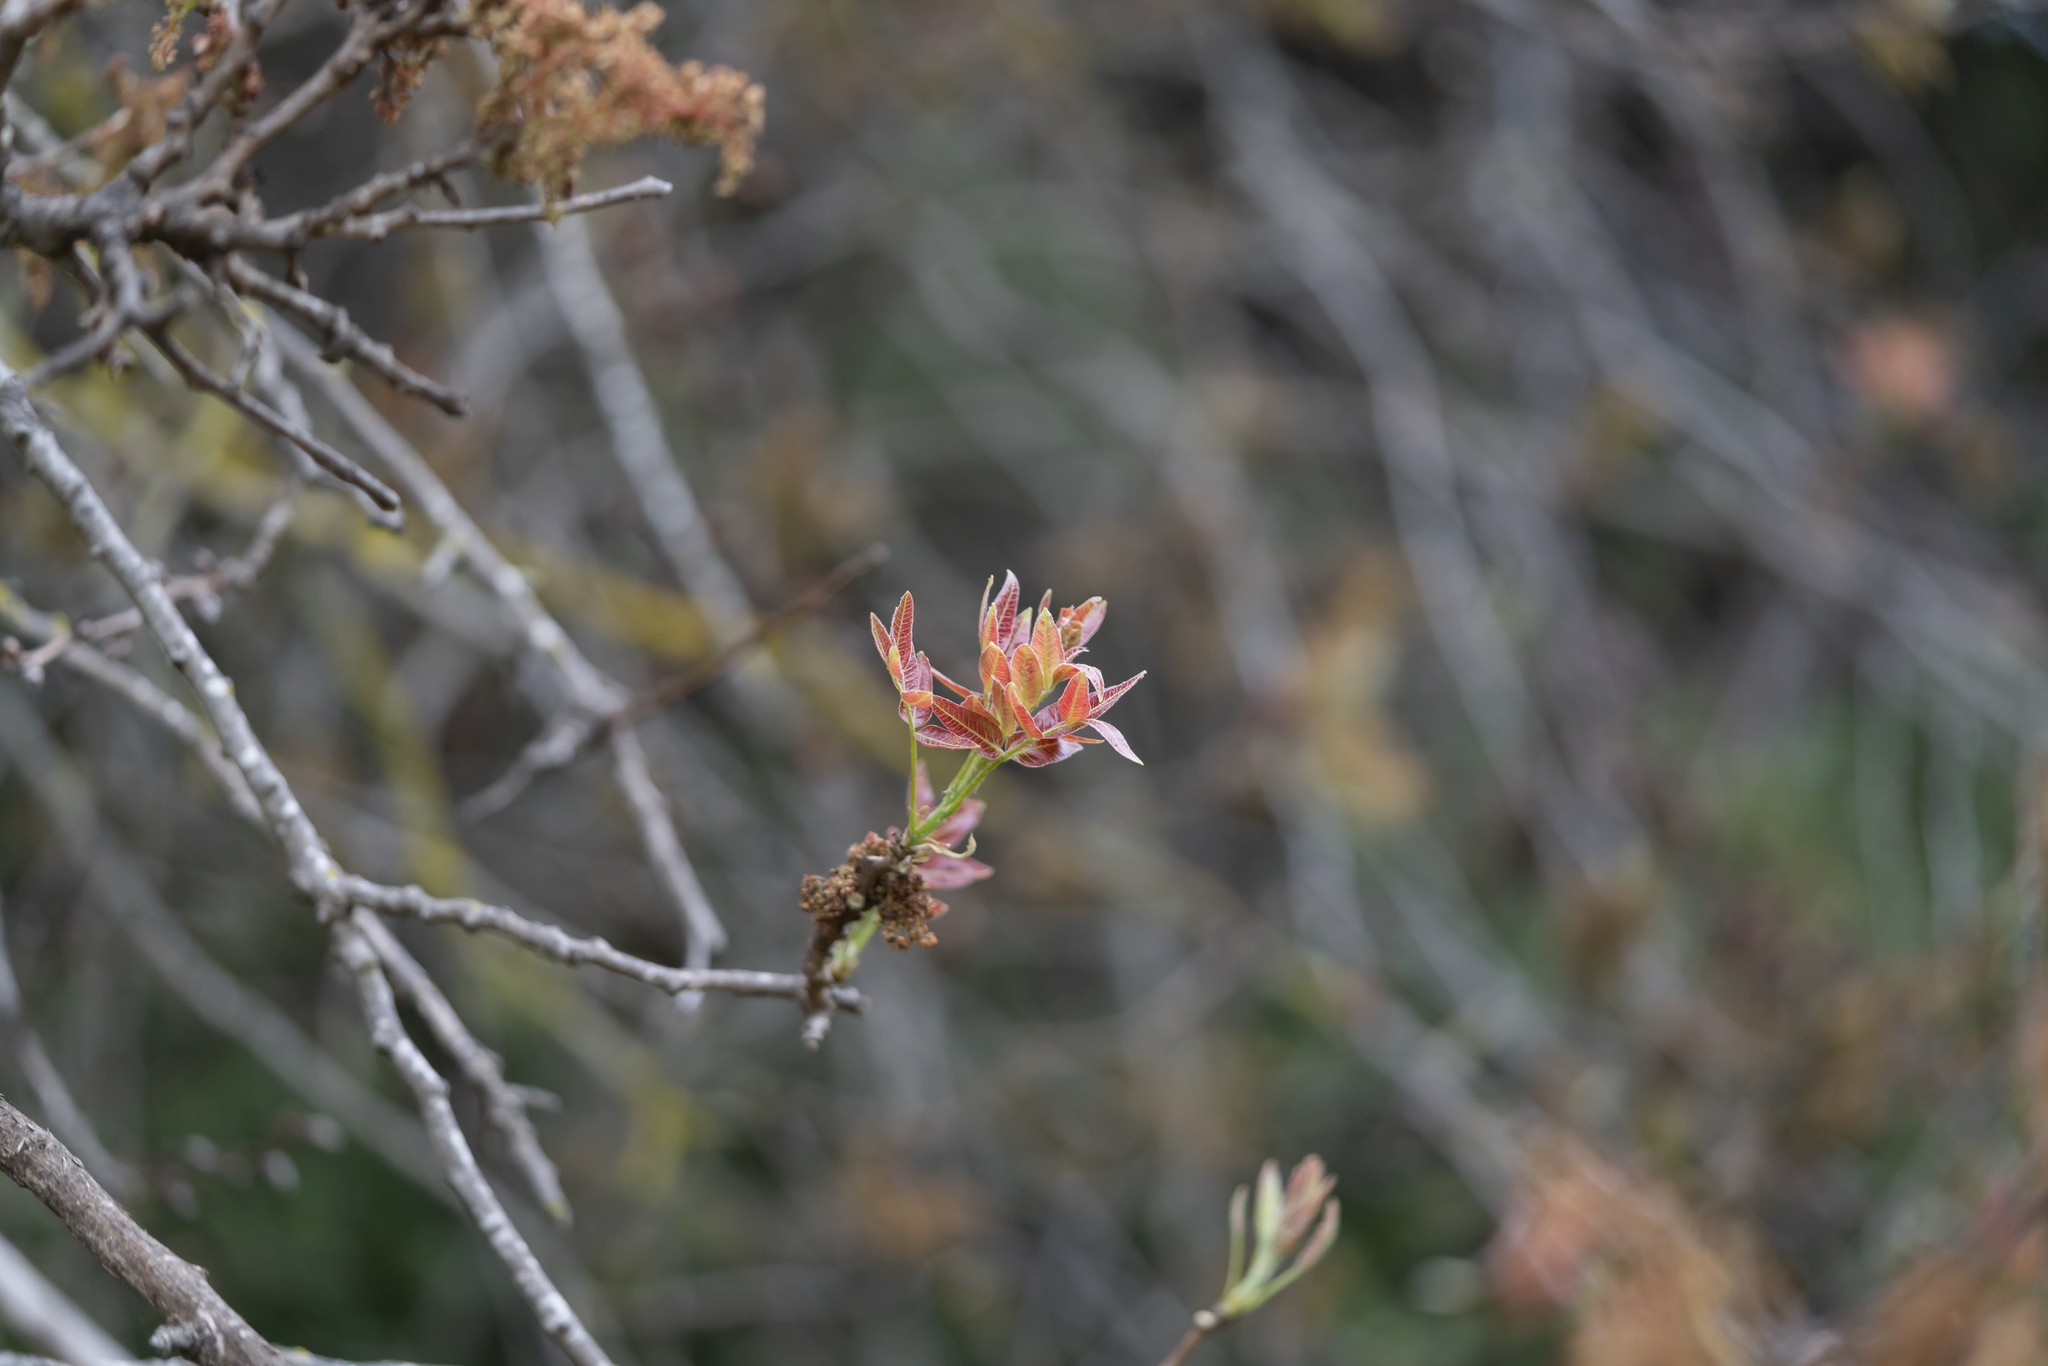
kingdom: Plantae
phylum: Tracheophyta
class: Magnoliopsida
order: Sapindales
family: Anacardiaceae
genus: Pistacia
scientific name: Pistacia atlantica
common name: Mt. atlas mastic tree
